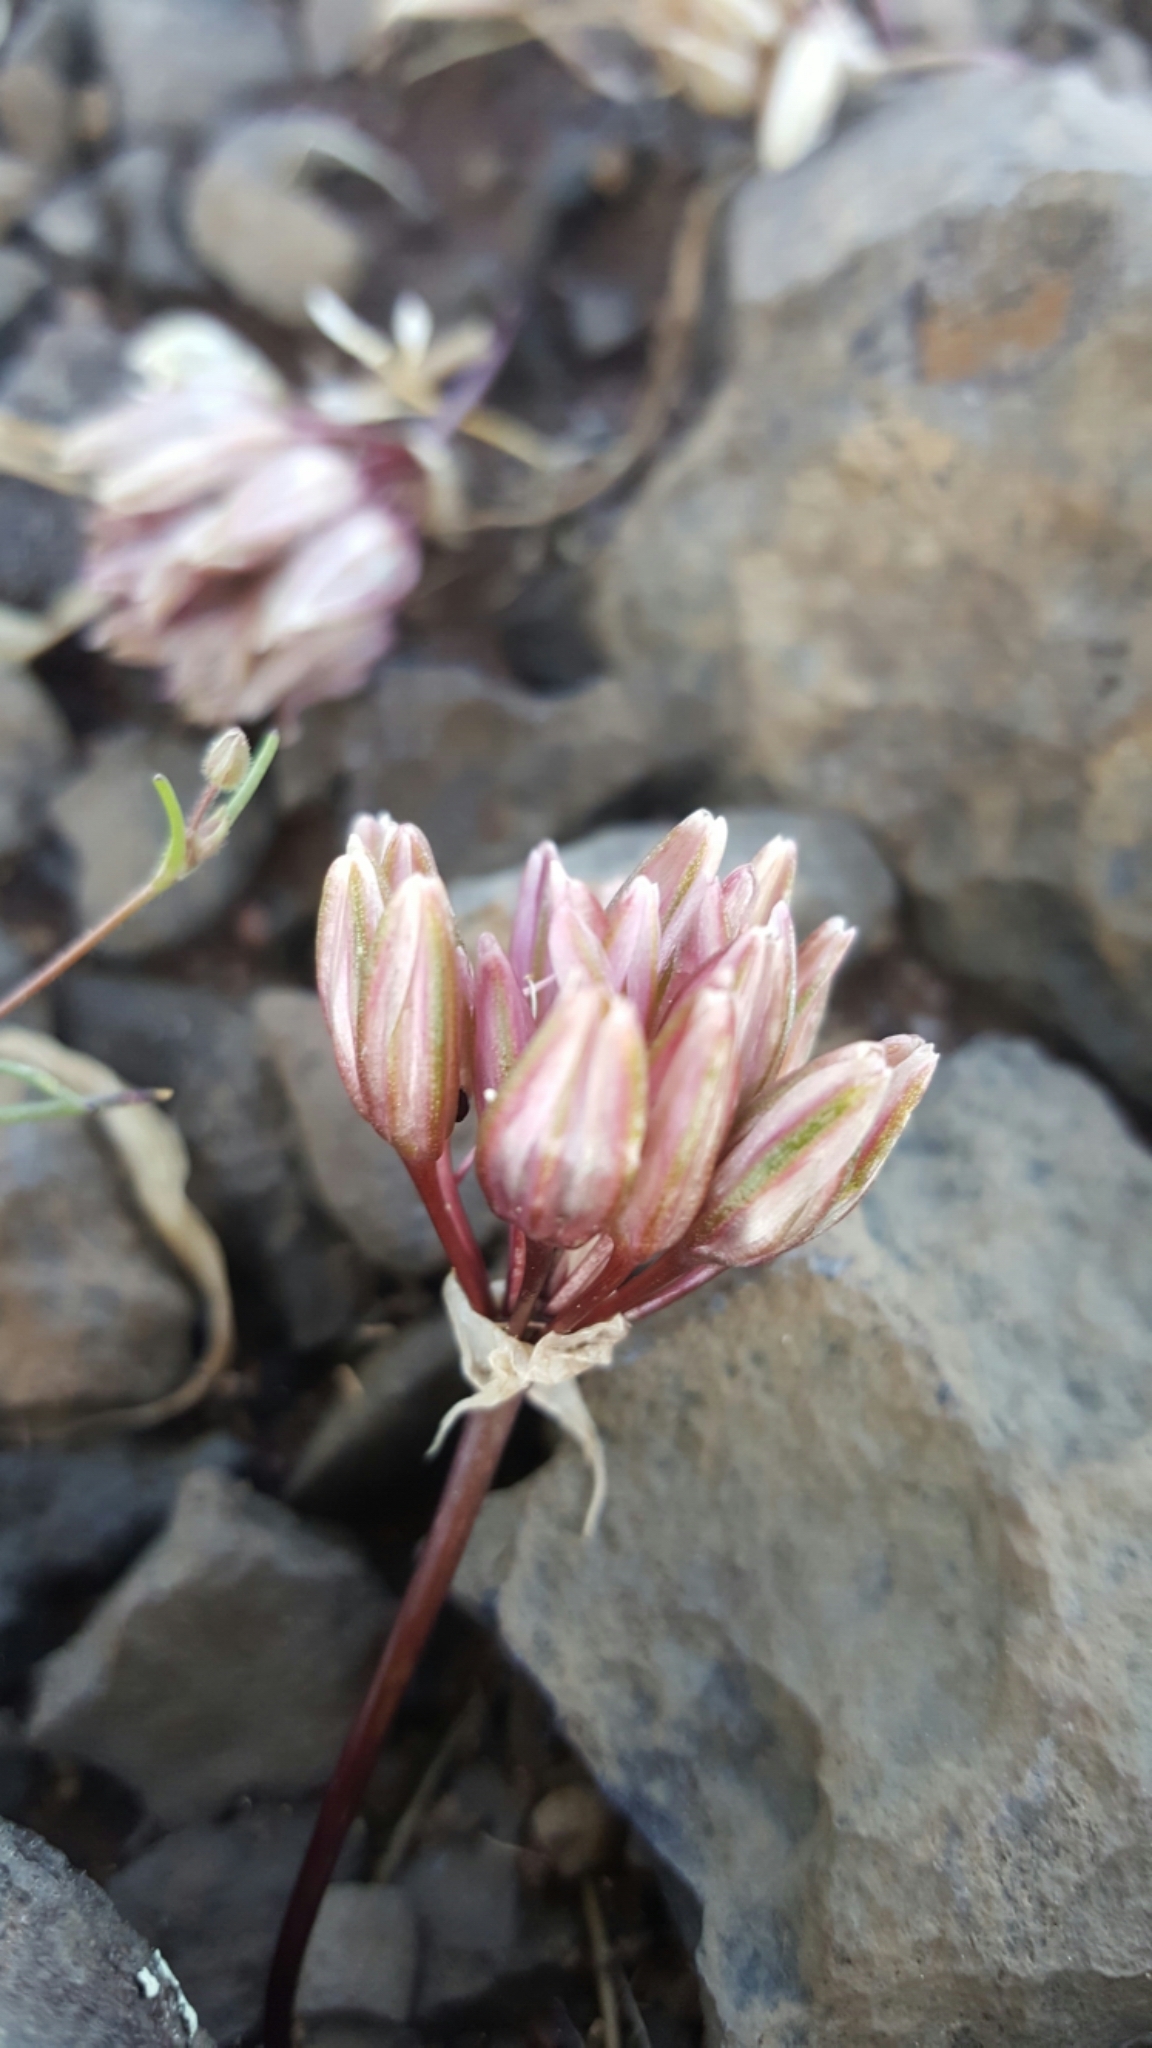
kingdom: Plantae
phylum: Tracheophyta
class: Liliopsida
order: Asparagales
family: Amaryllidaceae
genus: Allium
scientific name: Allium cratericola
